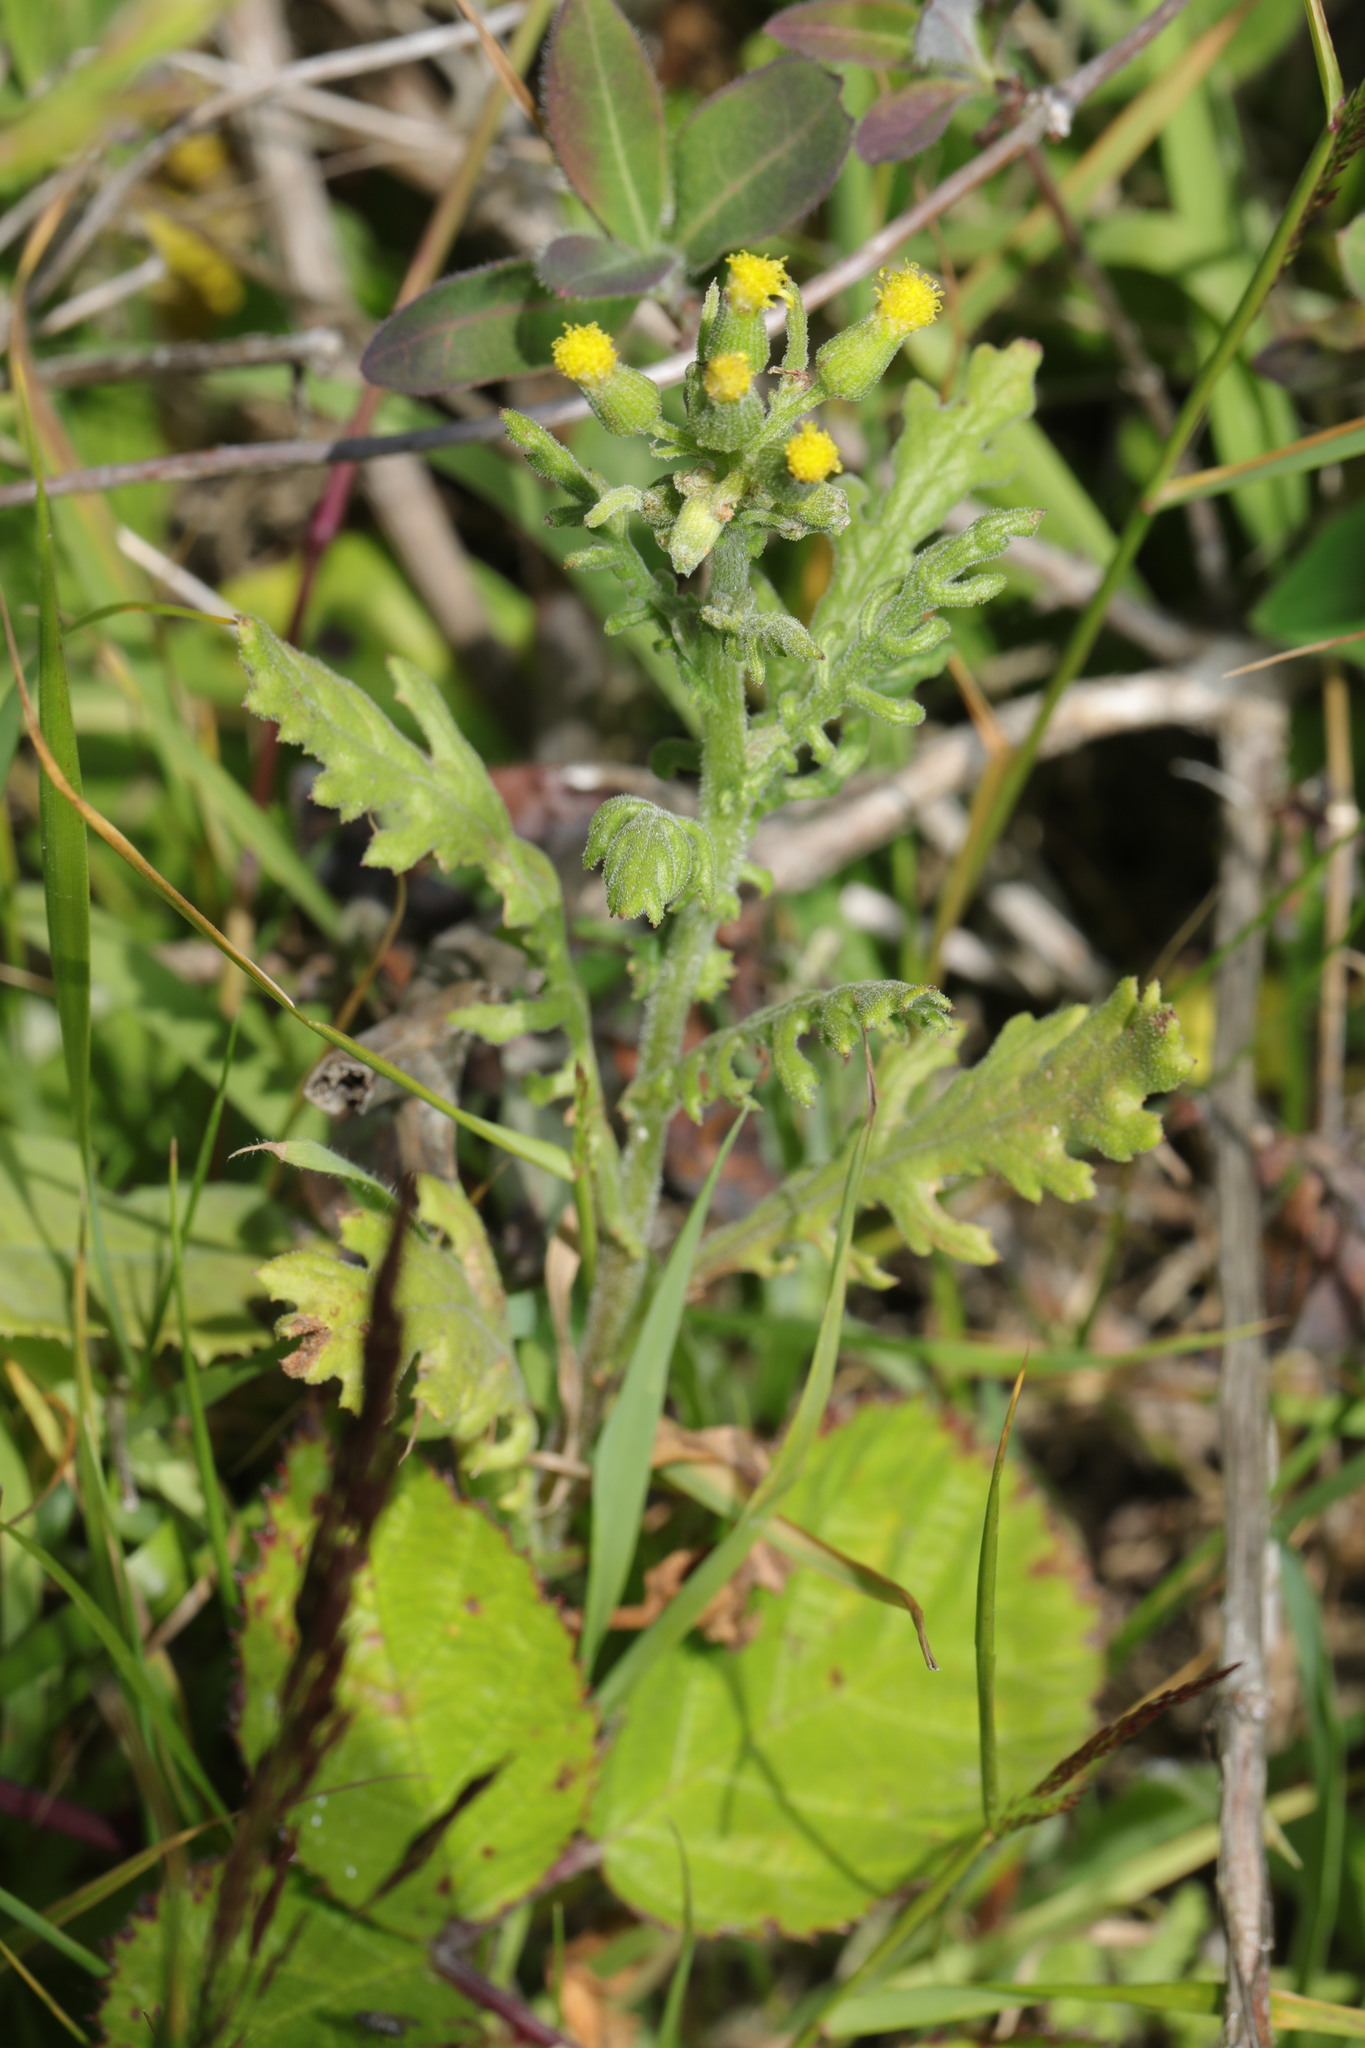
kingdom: Plantae
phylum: Tracheophyta
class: Magnoliopsida
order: Asterales
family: Asteraceae
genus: Senecio
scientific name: Senecio sylvaticus
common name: Woodland ragwort
